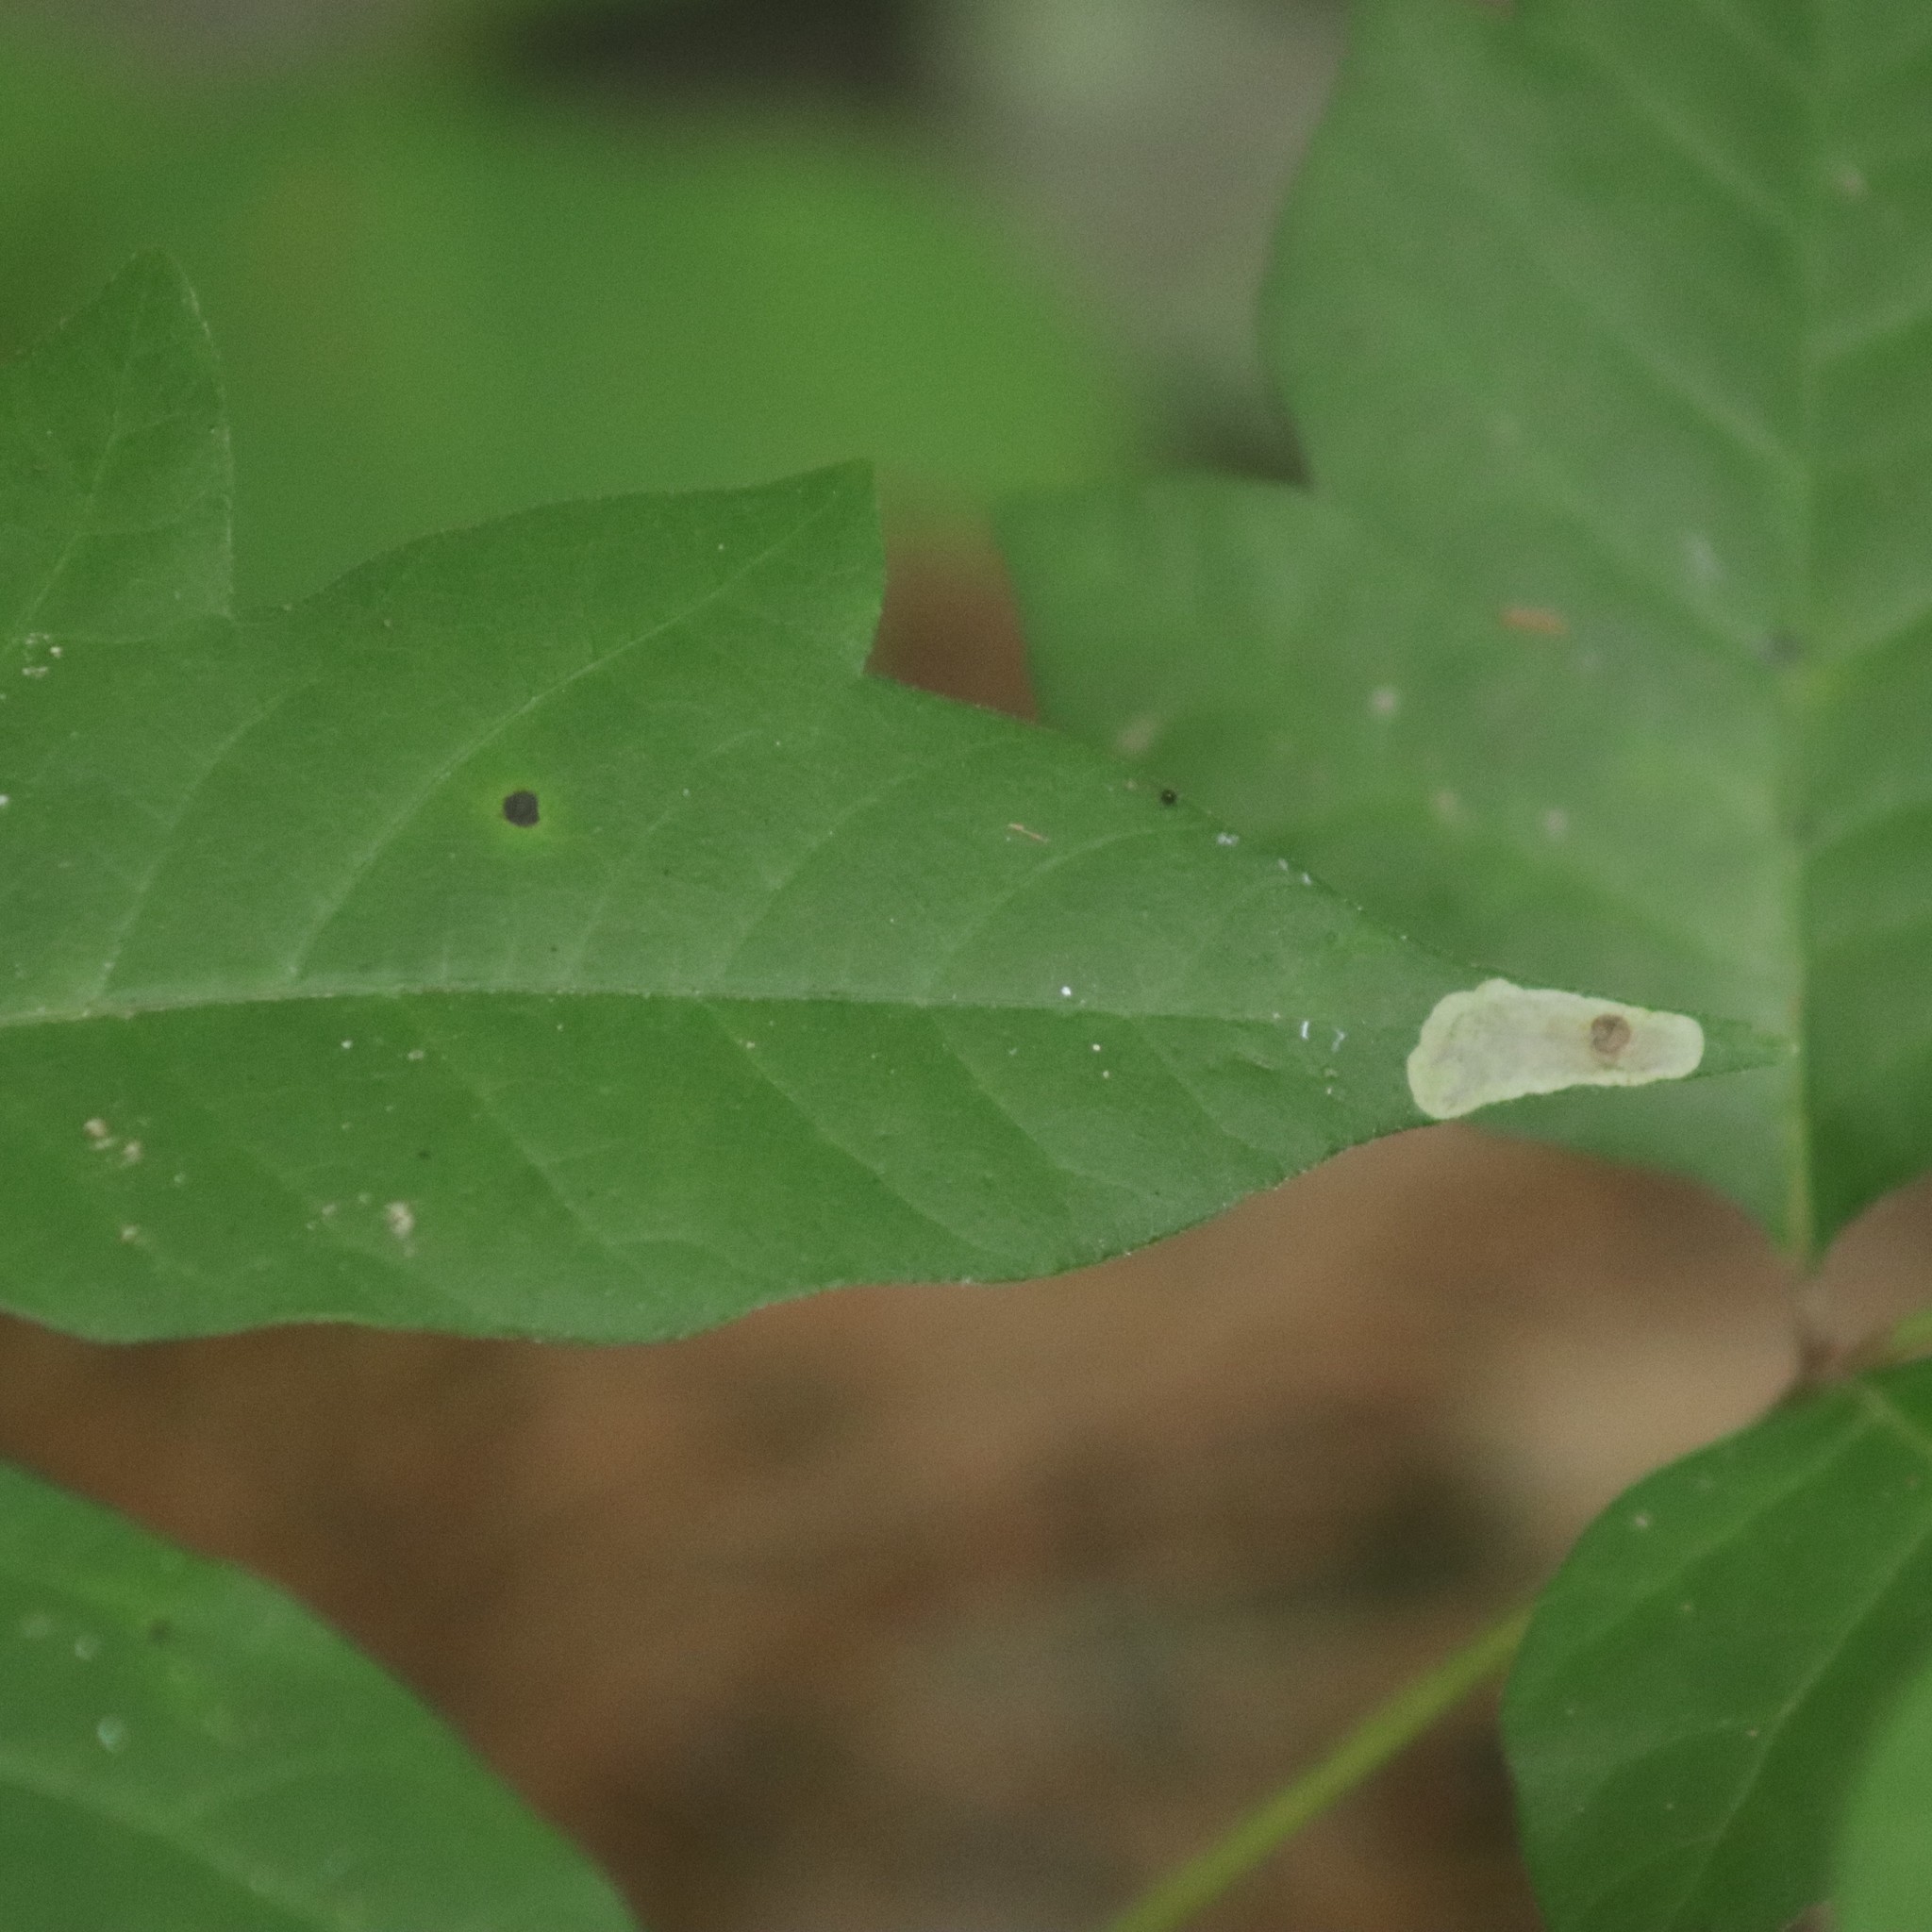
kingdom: Animalia
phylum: Arthropoda
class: Insecta
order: Lepidoptera
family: Gracillariidae
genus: Cameraria
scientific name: Cameraria guttifinitella
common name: Poison ivy leaf-miner moth
